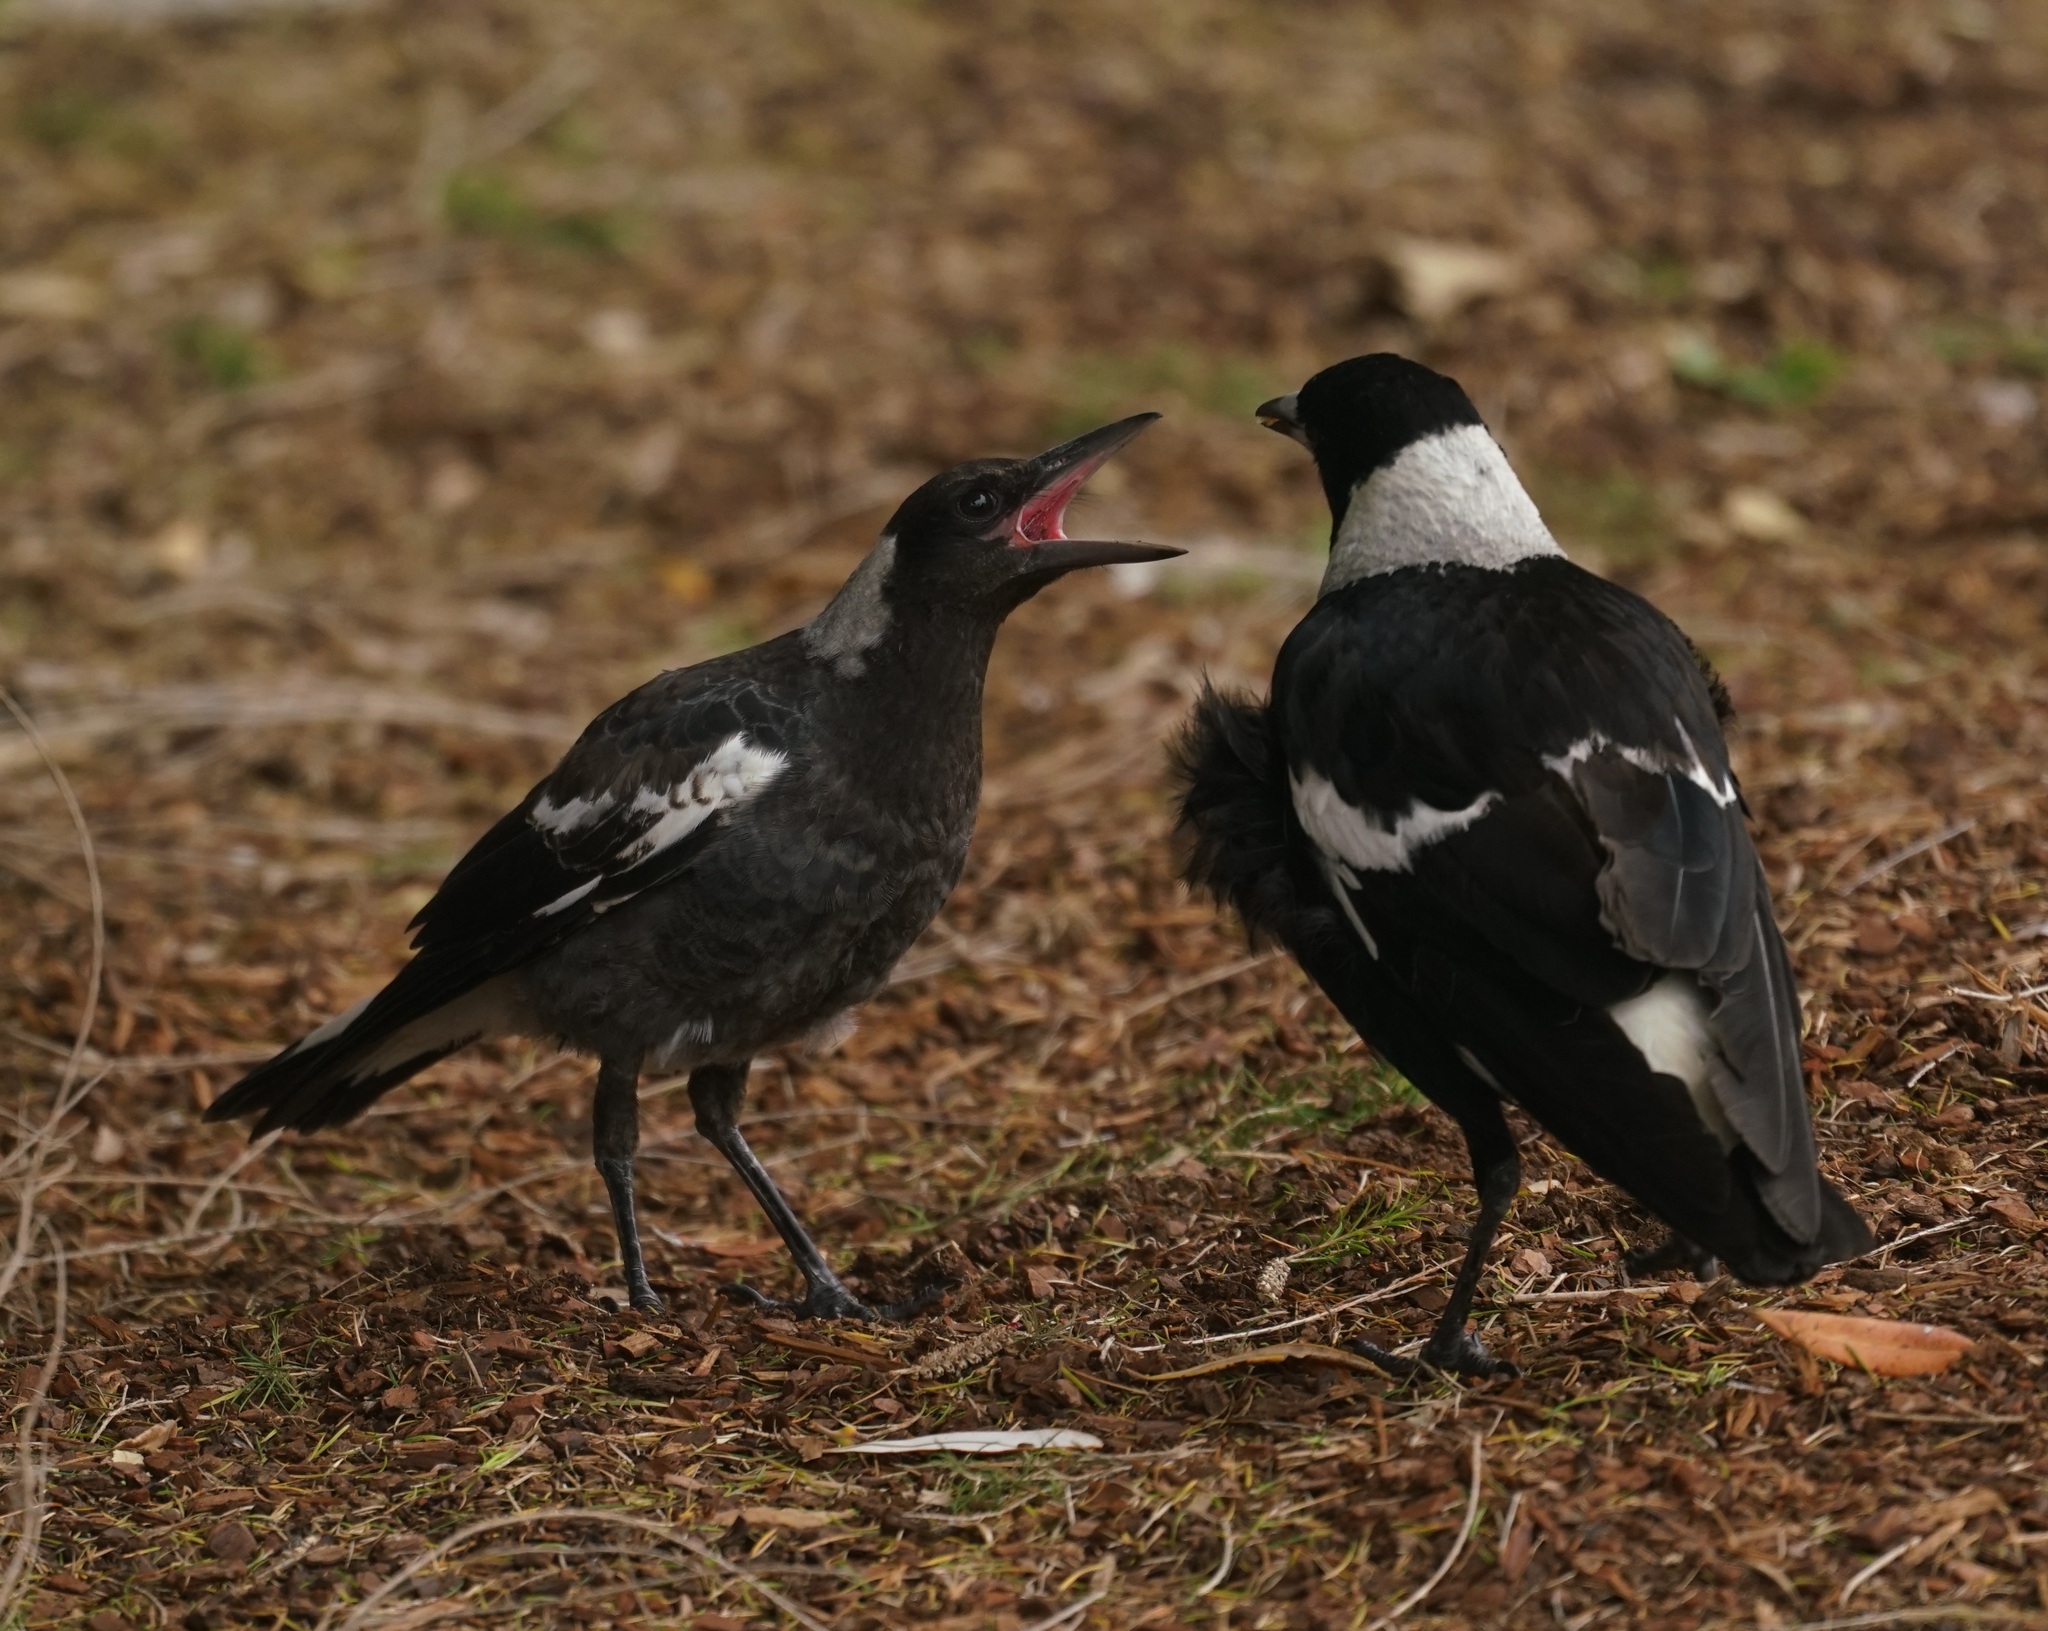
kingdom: Animalia
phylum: Chordata
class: Aves
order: Passeriformes
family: Cracticidae
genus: Gymnorhina
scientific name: Gymnorhina tibicen
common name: Australian magpie
